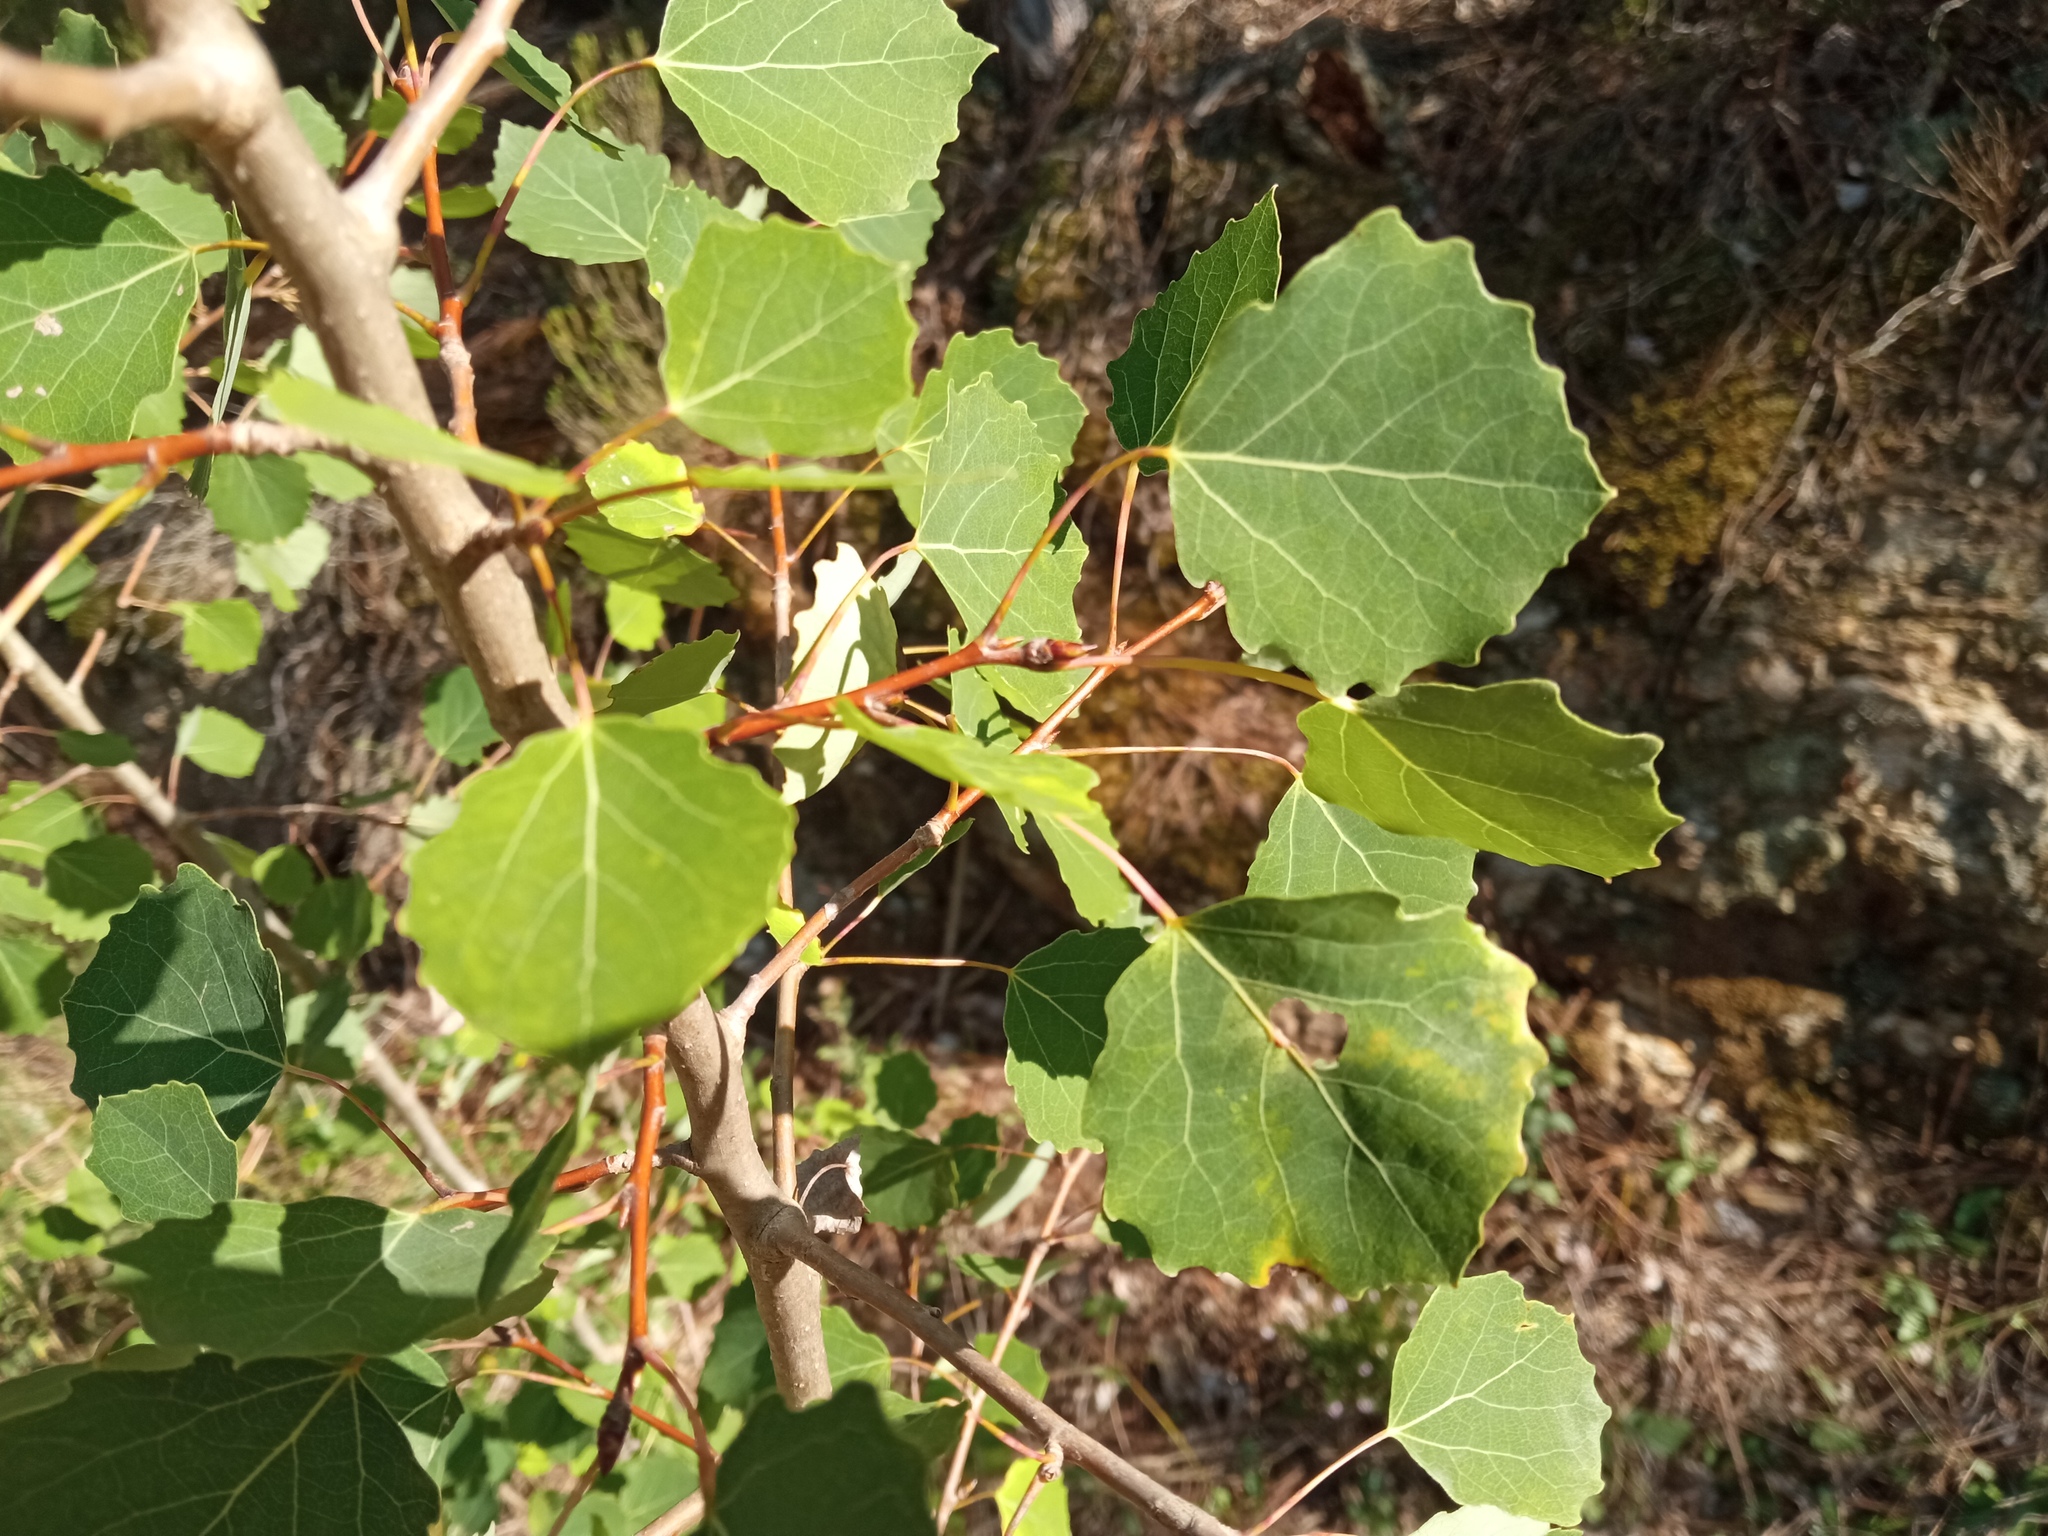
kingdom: Plantae
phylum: Tracheophyta
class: Magnoliopsida
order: Malpighiales
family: Salicaceae
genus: Populus
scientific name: Populus tremula
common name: European aspen
